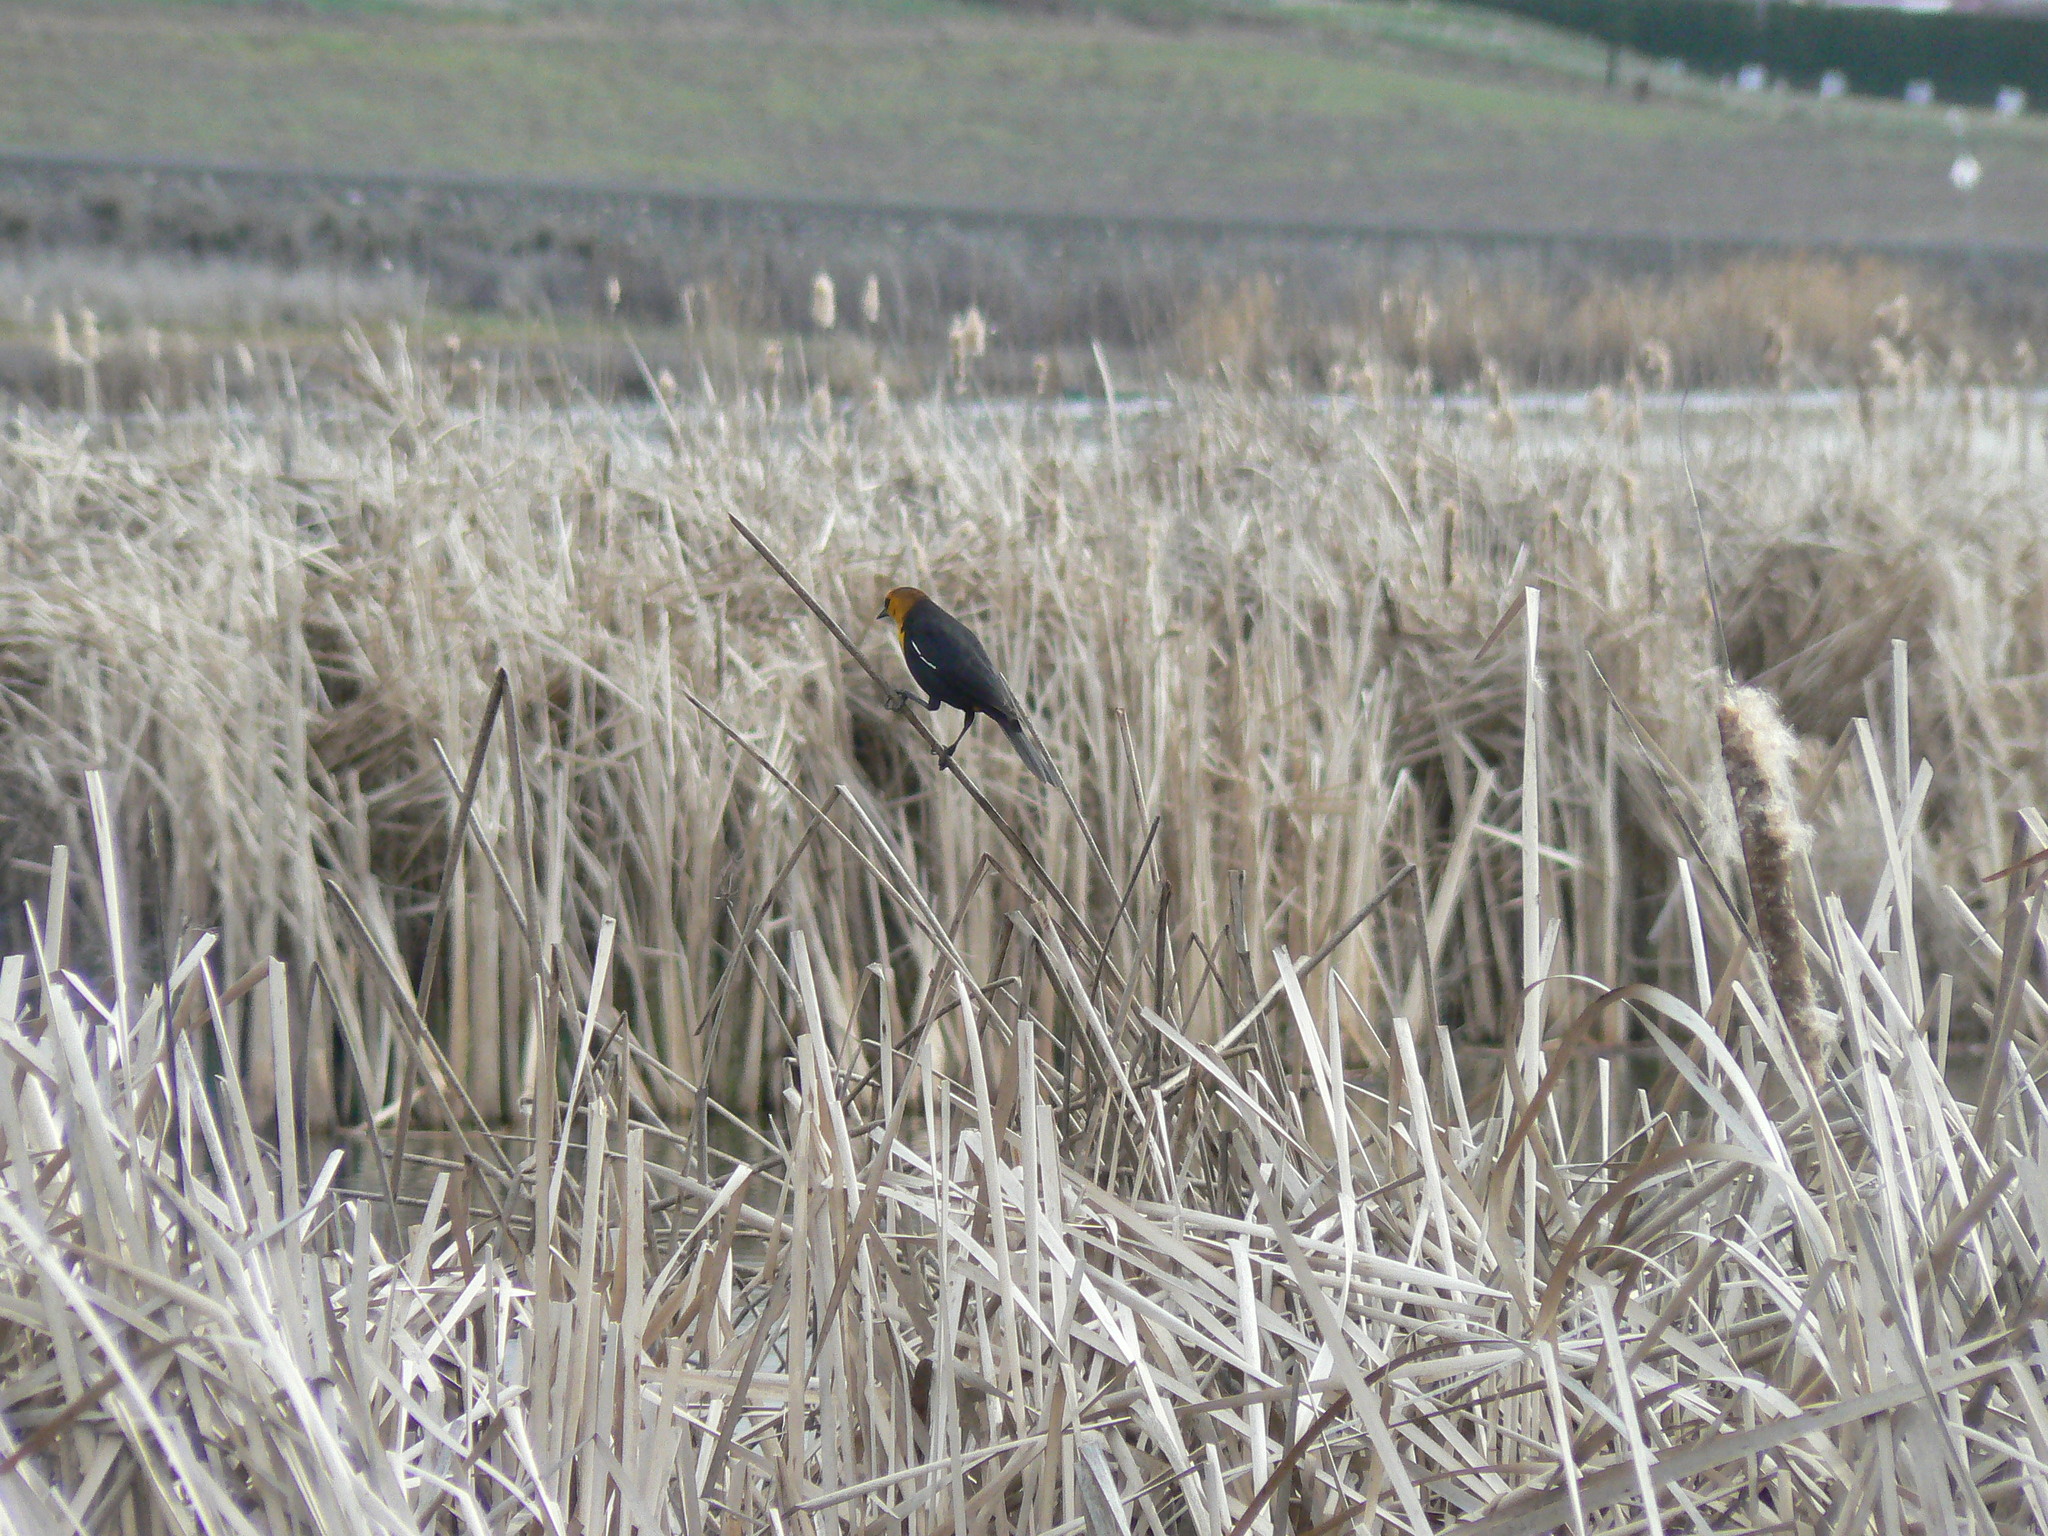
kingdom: Animalia
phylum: Chordata
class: Aves
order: Passeriformes
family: Icteridae
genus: Xanthocephalus
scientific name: Xanthocephalus xanthocephalus
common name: Yellow-headed blackbird
